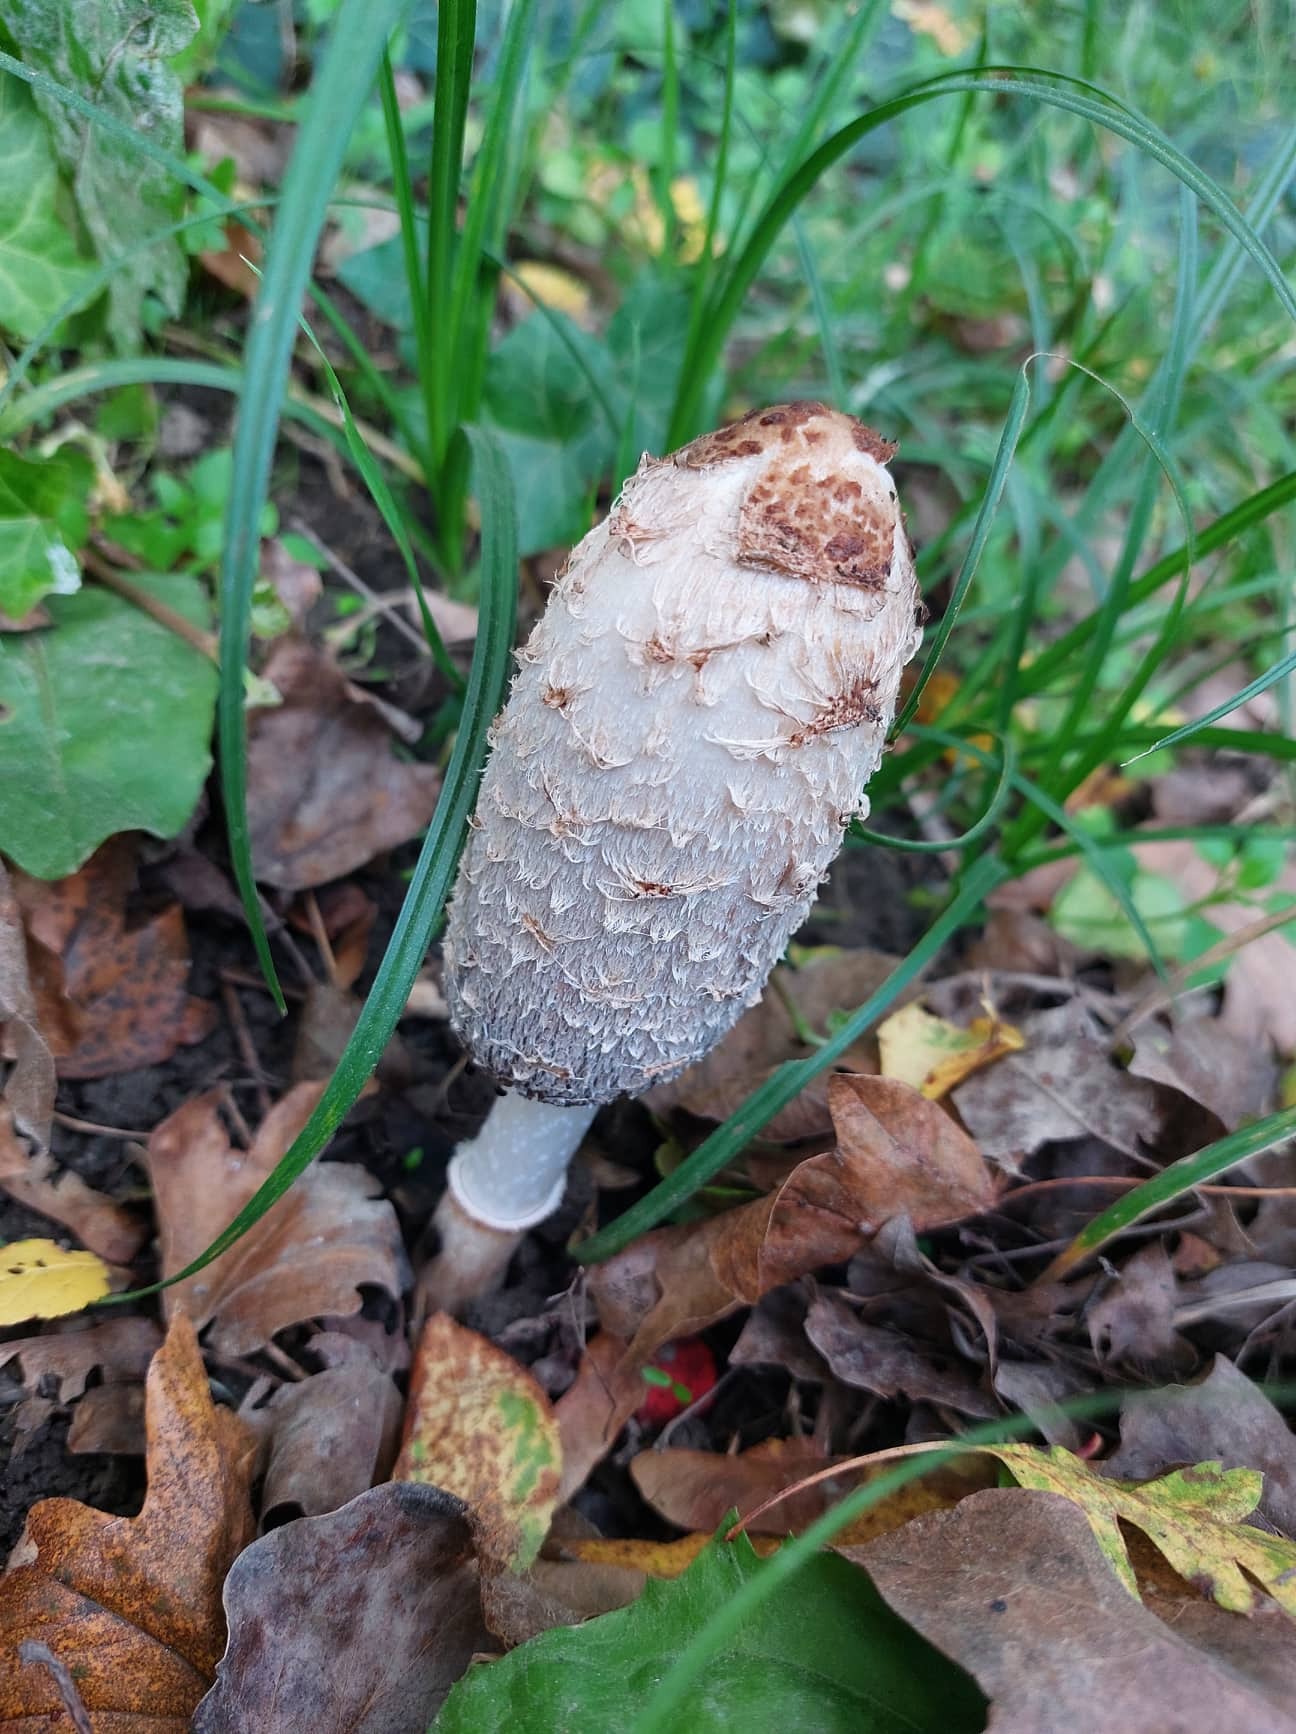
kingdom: Fungi
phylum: Basidiomycota
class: Agaricomycetes
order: Agaricales
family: Agaricaceae
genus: Coprinus
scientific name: Coprinus comatus
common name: Lawyer's wig
